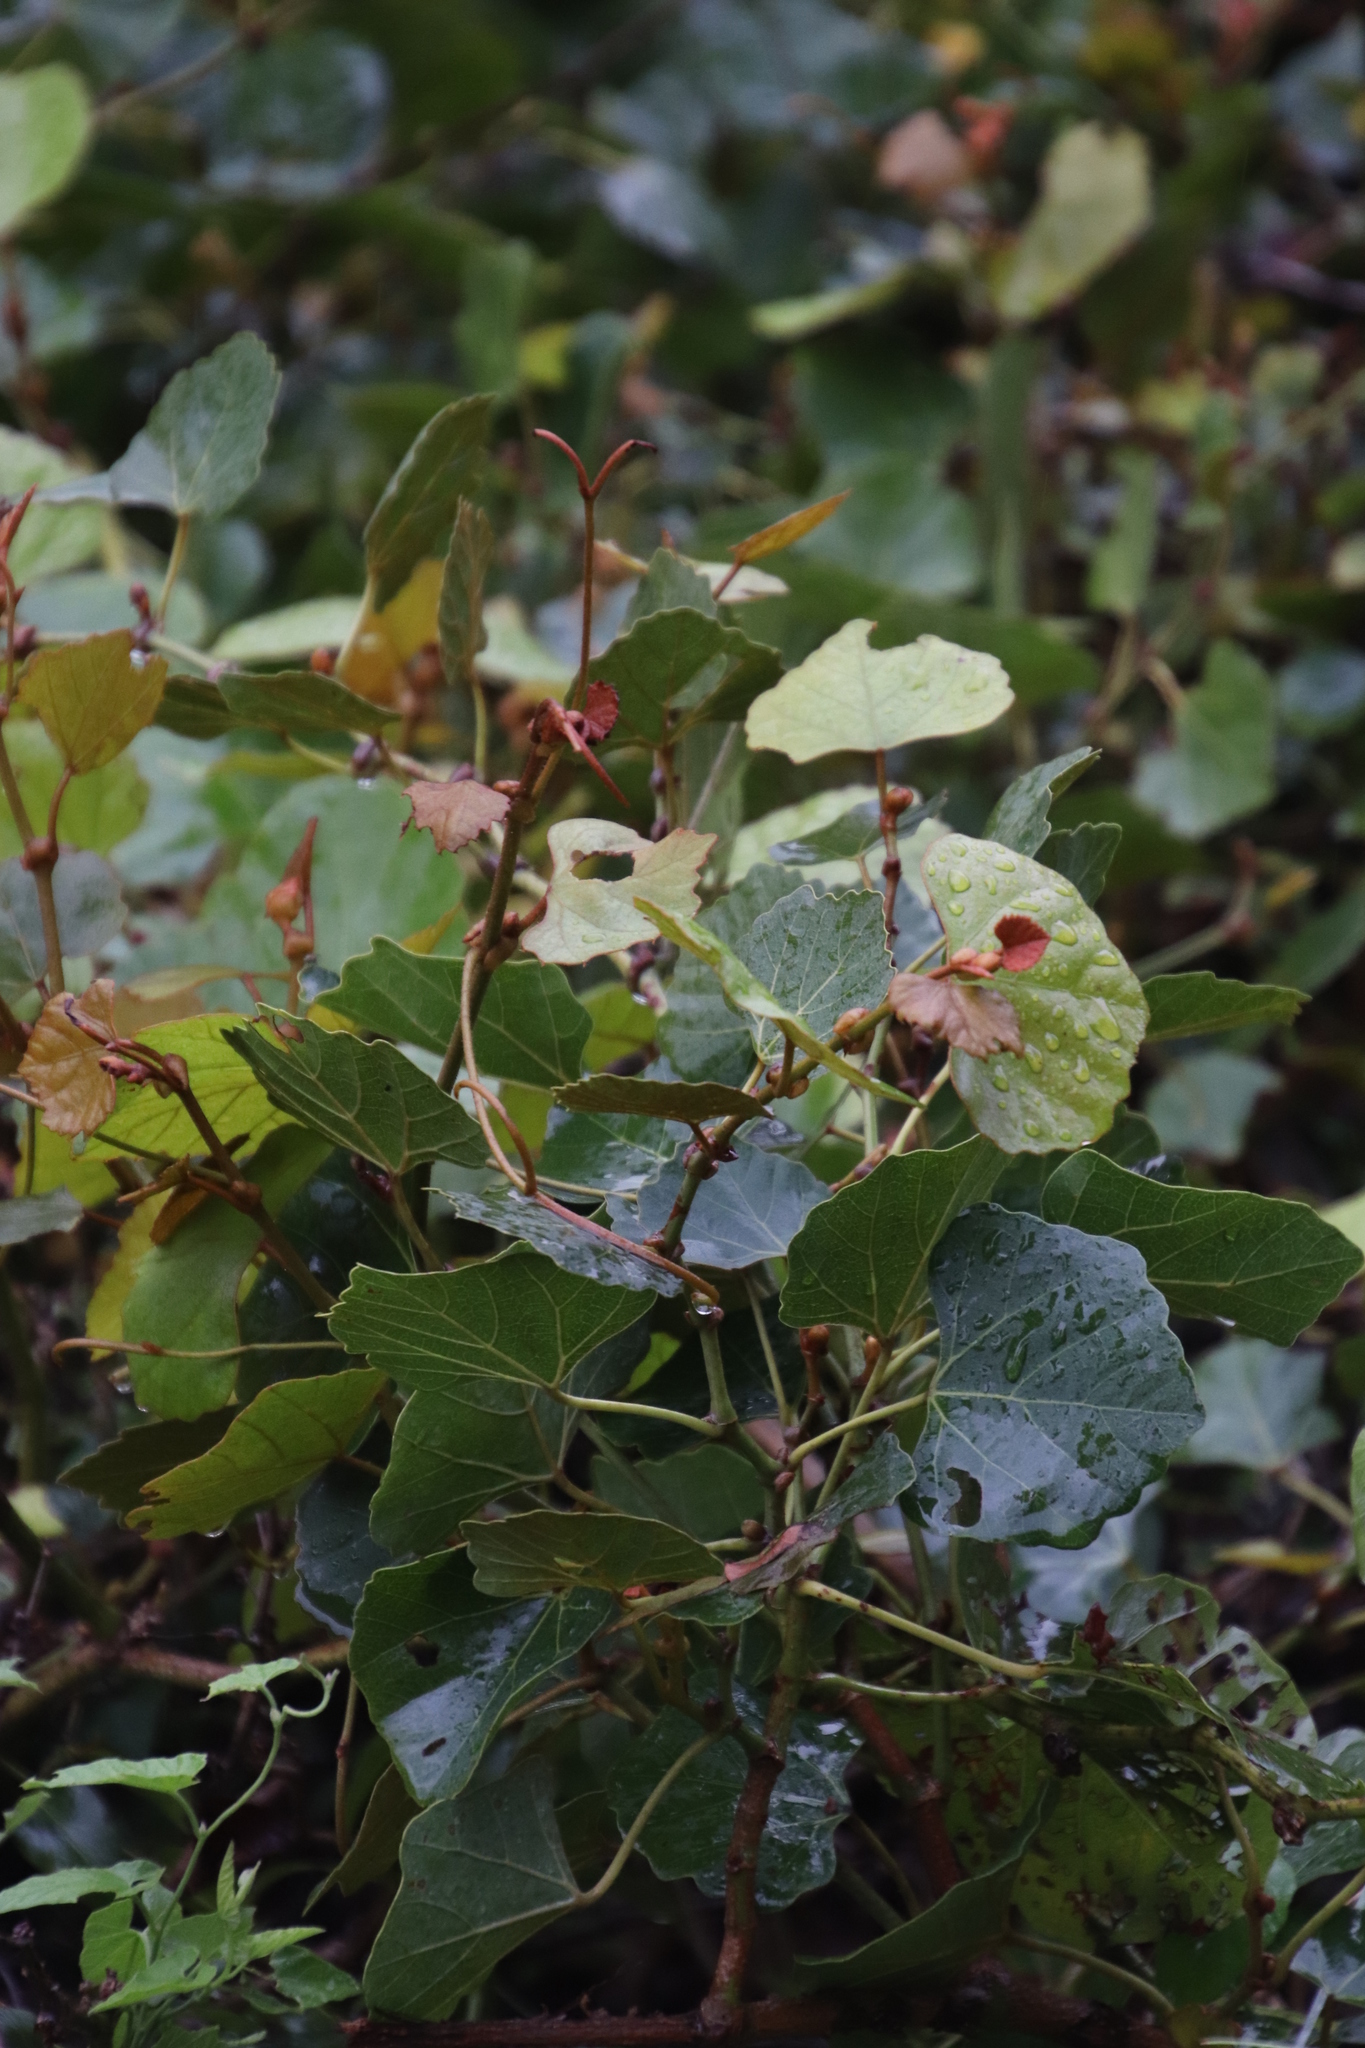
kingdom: Plantae
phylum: Tracheophyta
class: Magnoliopsida
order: Vitales
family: Vitaceae
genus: Rhoicissus
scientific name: Rhoicissus tomentosa
